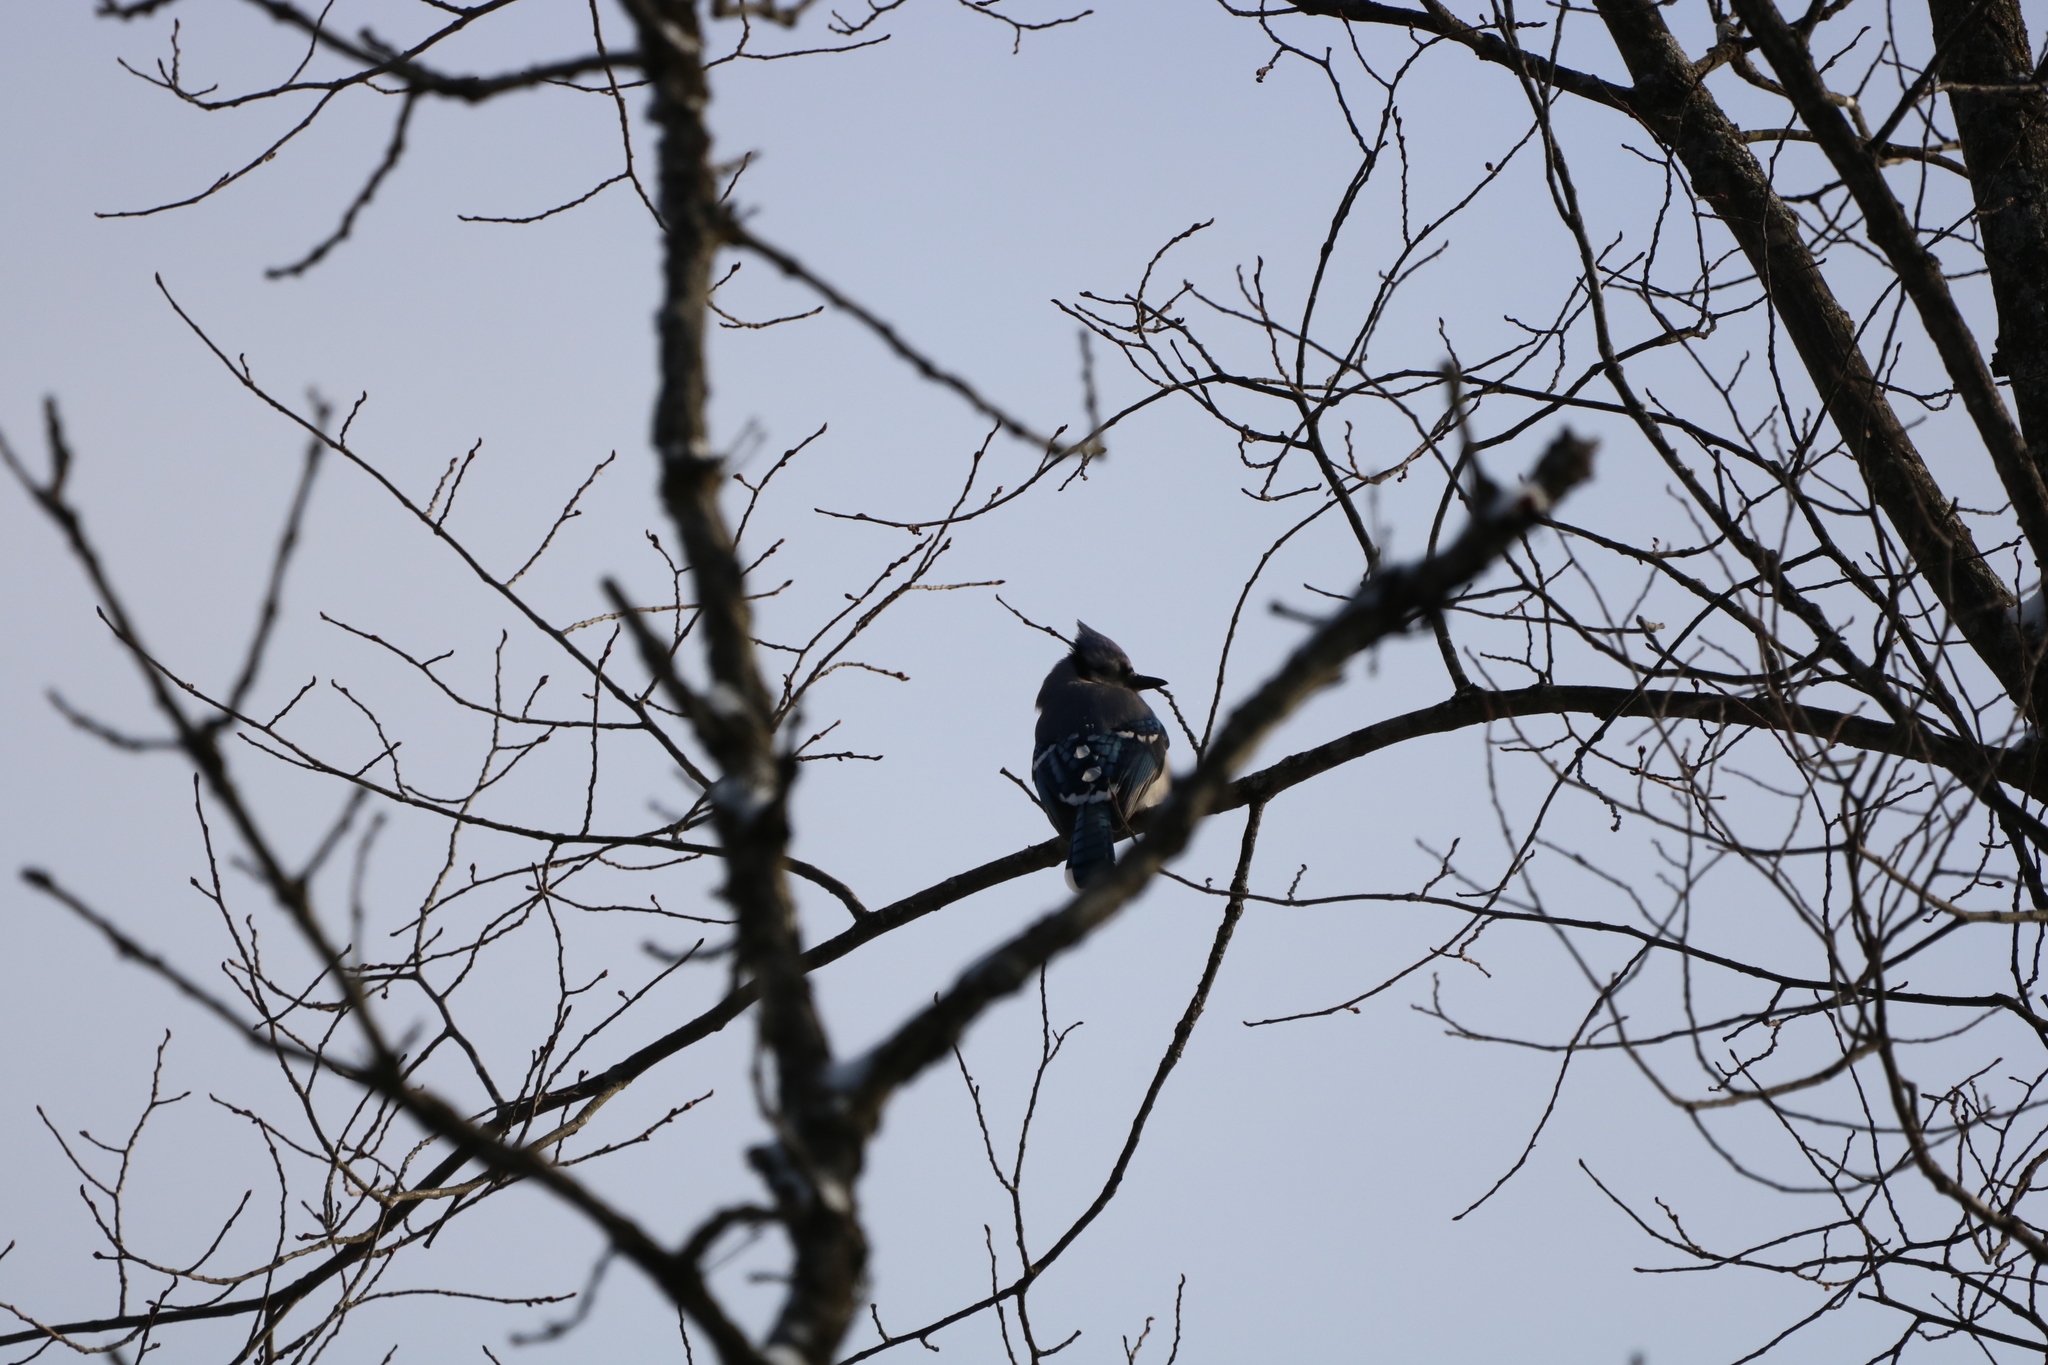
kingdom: Animalia
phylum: Chordata
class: Aves
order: Passeriformes
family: Corvidae
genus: Cyanocitta
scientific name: Cyanocitta cristata
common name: Blue jay
